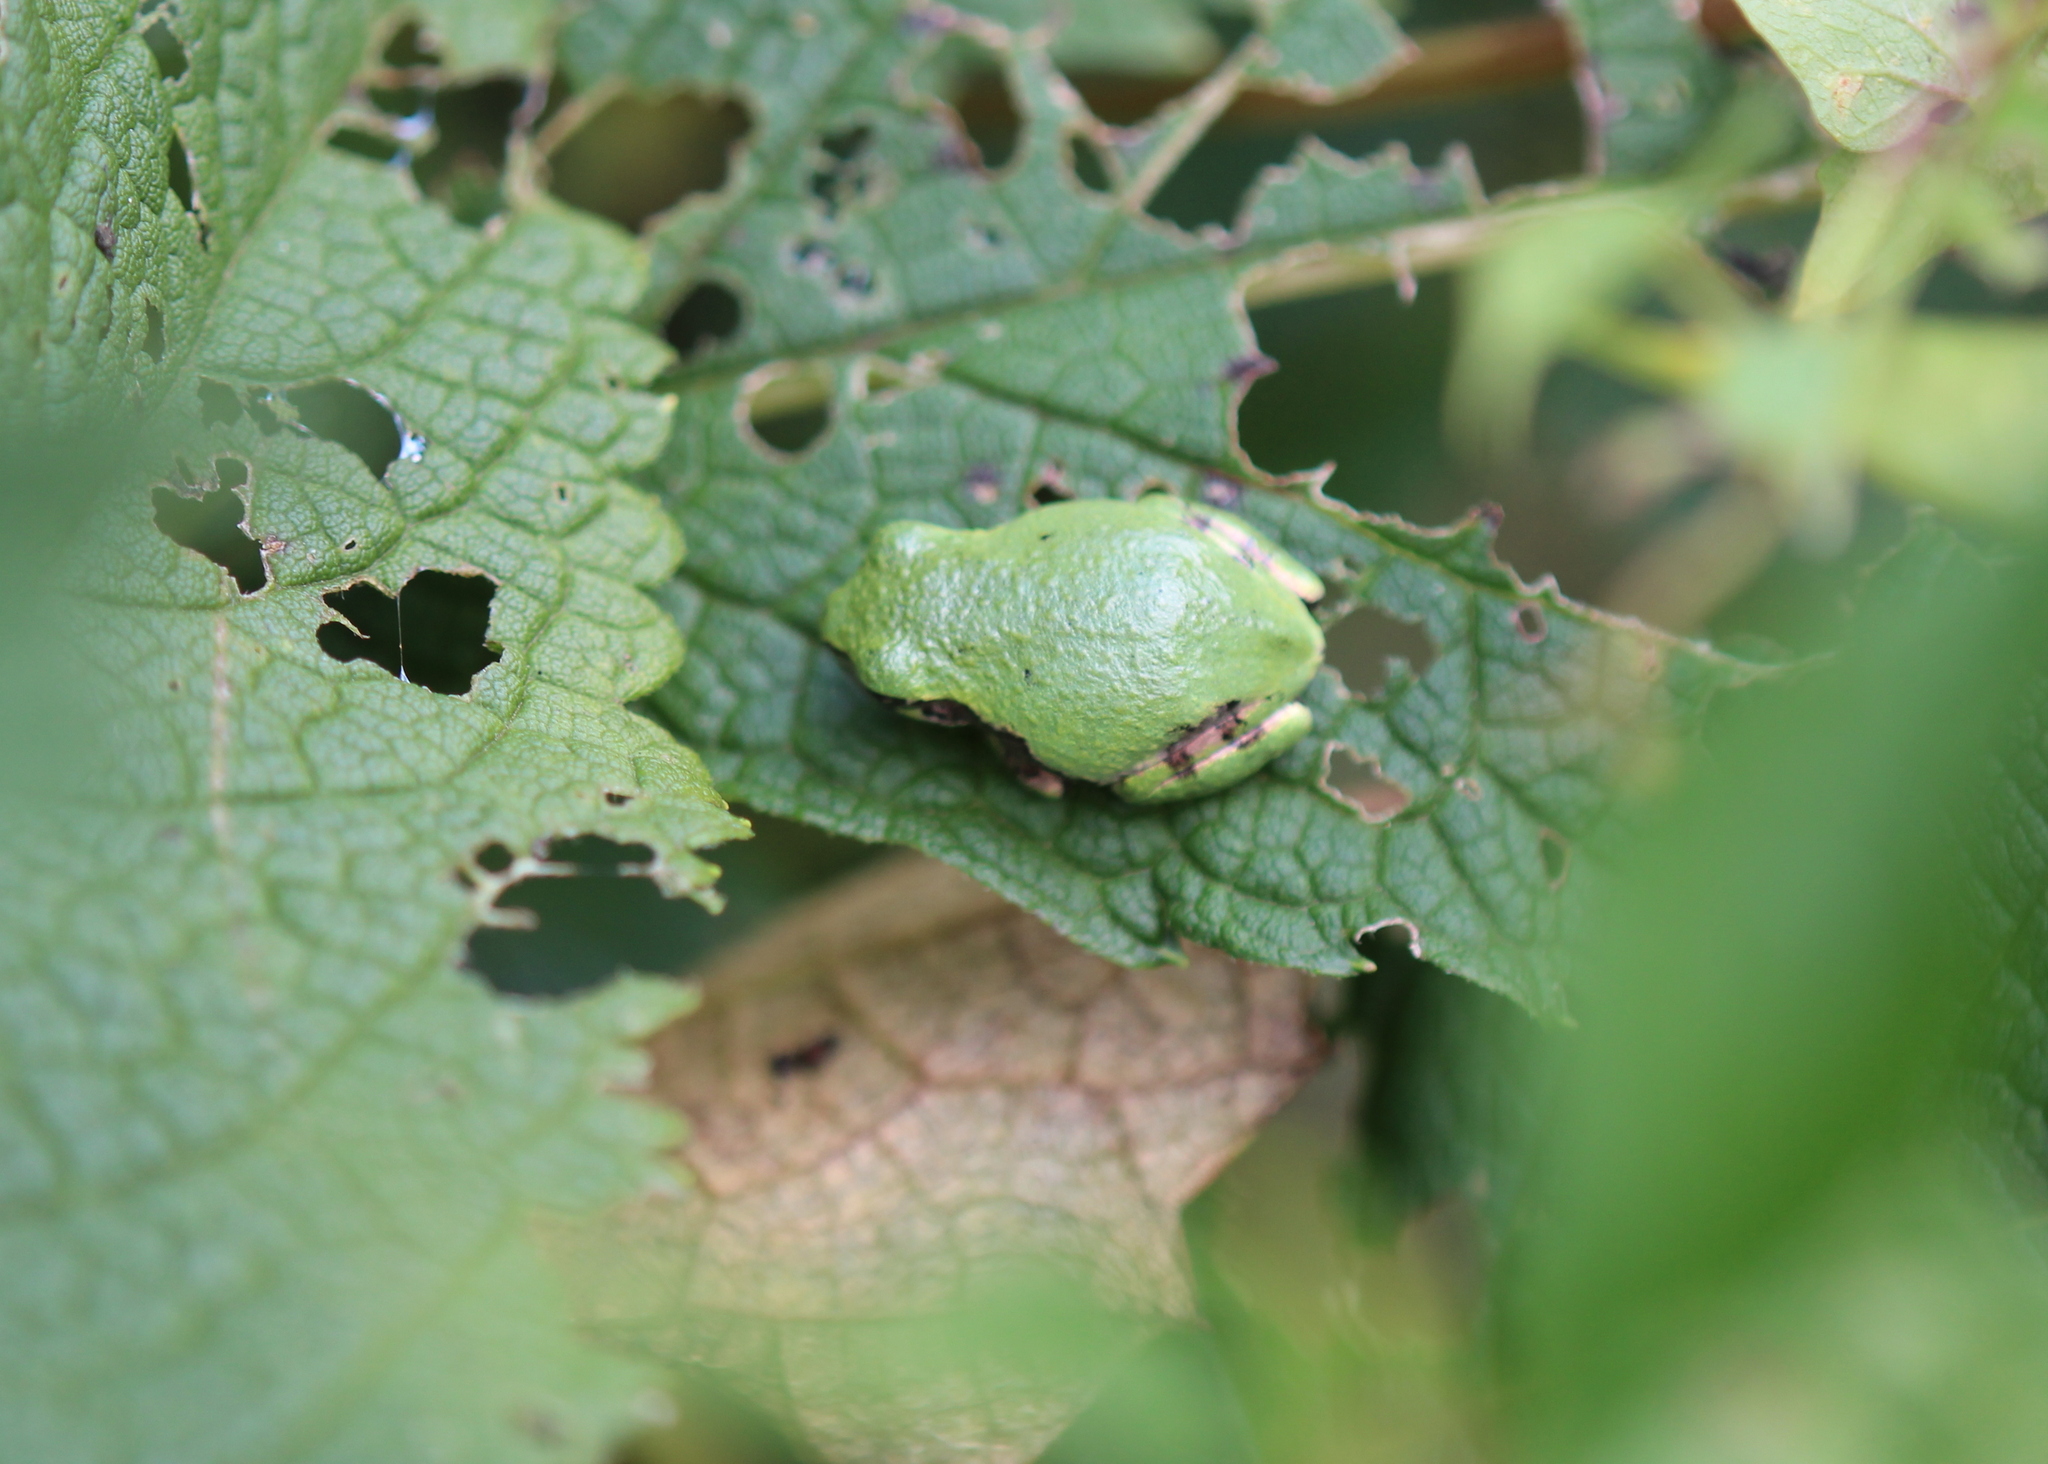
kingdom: Animalia
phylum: Chordata
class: Amphibia
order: Anura
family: Hylidae
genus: Dryophytes
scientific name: Dryophytes versicolor
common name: Gray treefrog
